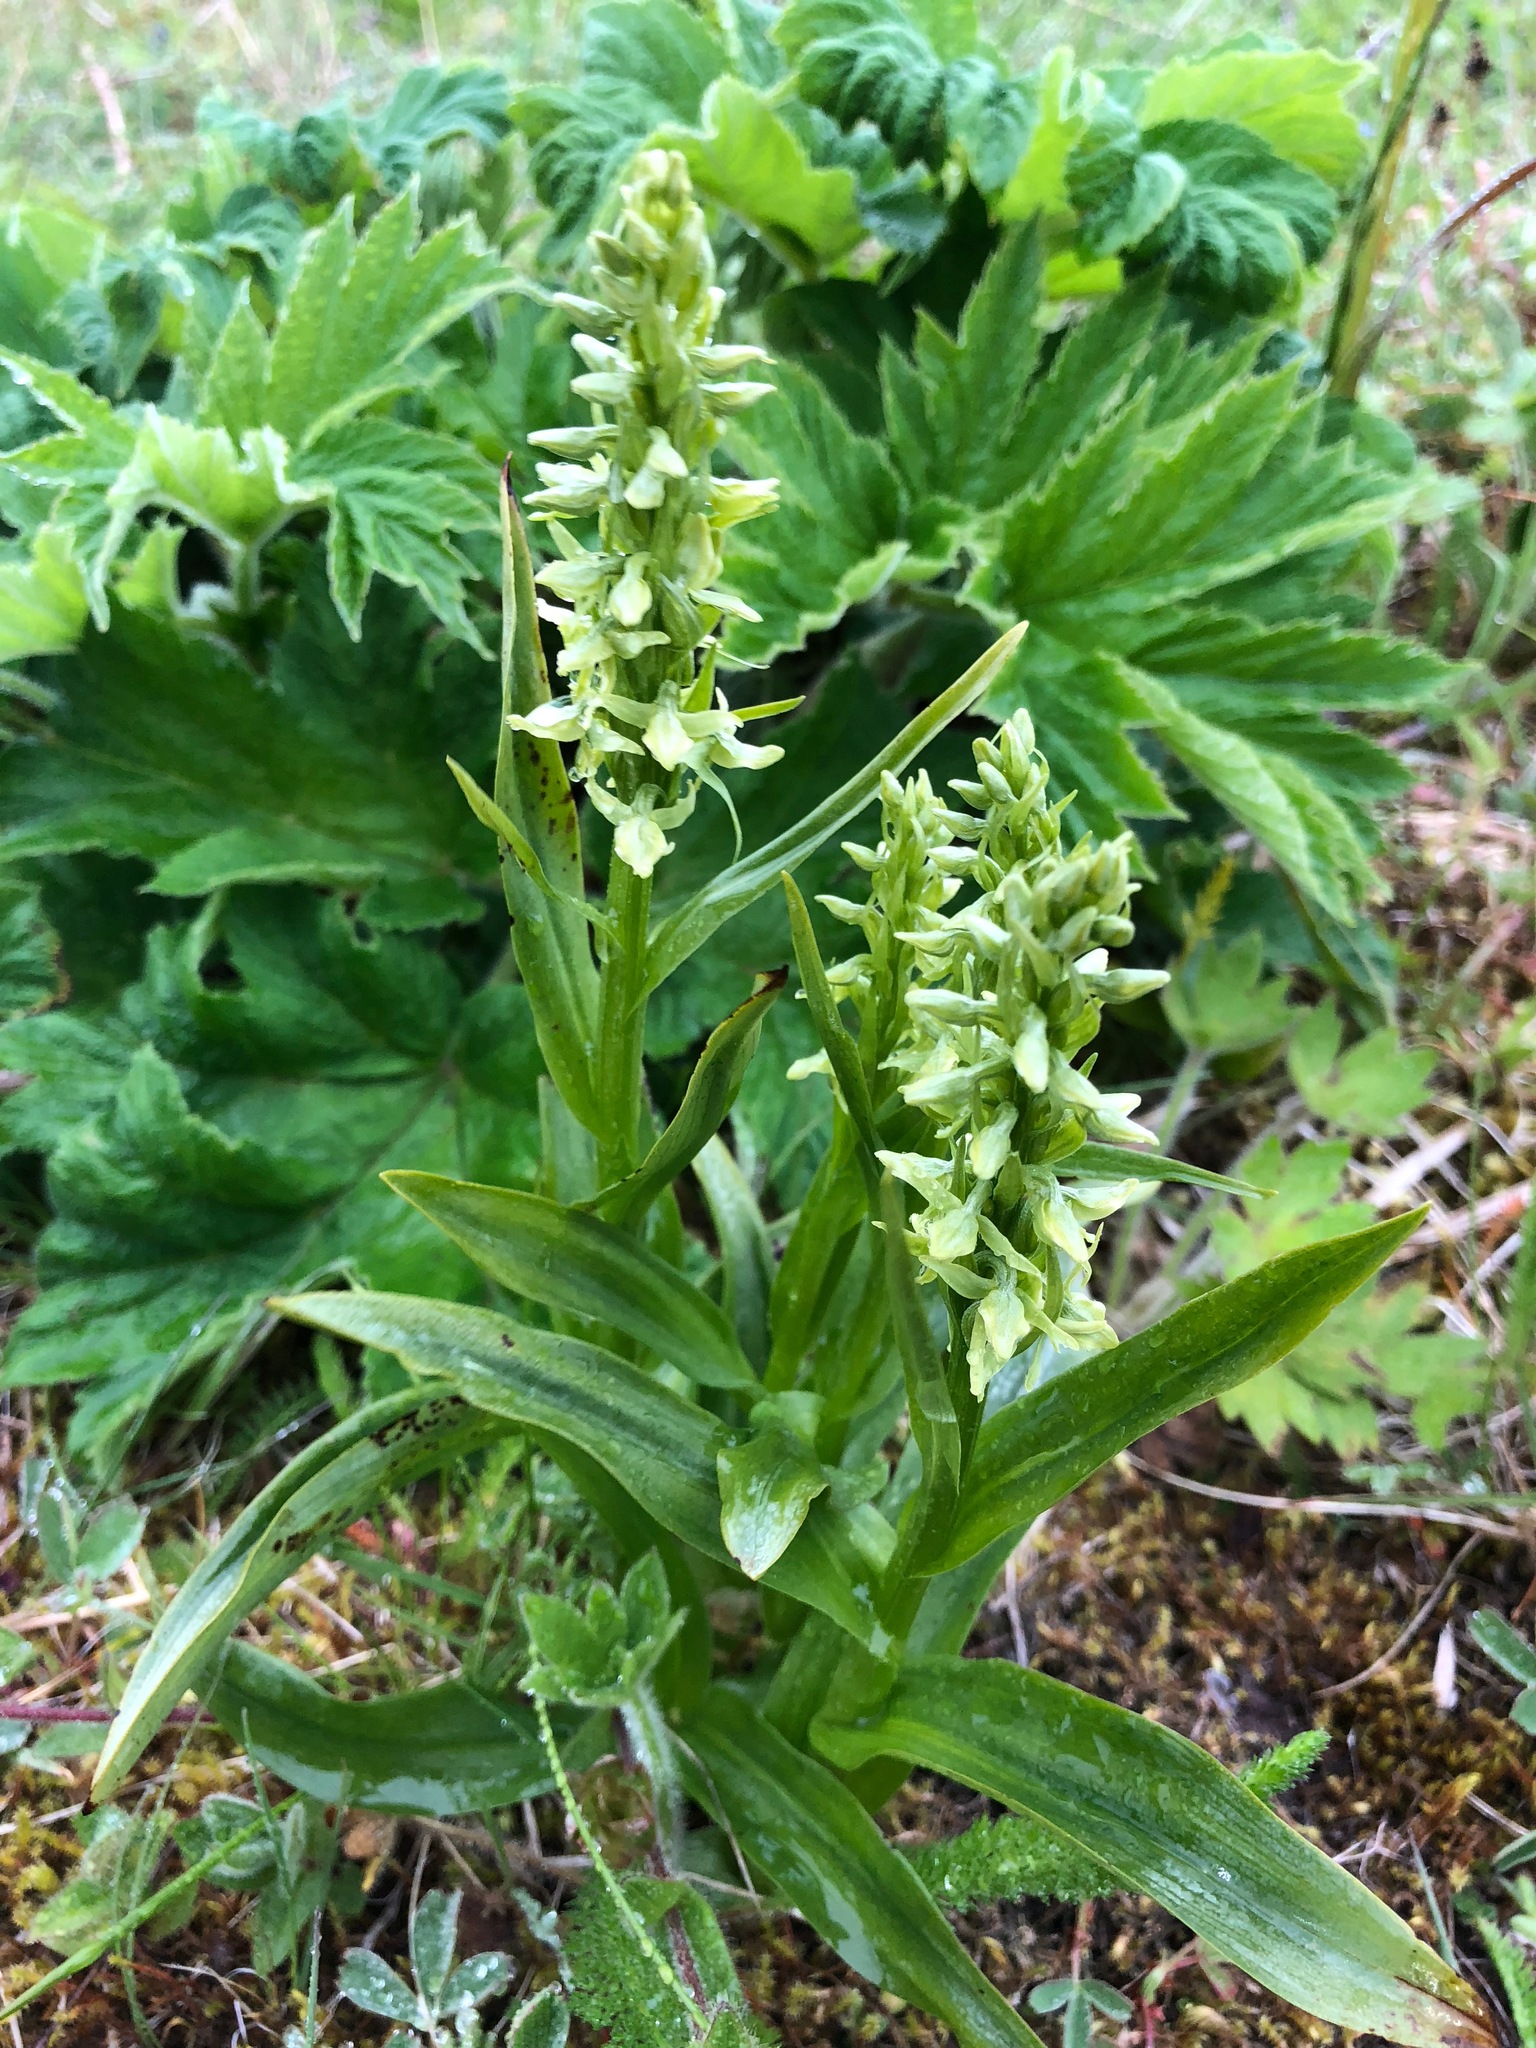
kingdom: Plantae
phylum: Tracheophyta
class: Liliopsida
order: Asparagales
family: Orchidaceae
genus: Platanthera
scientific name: Platanthera convallariifolia
